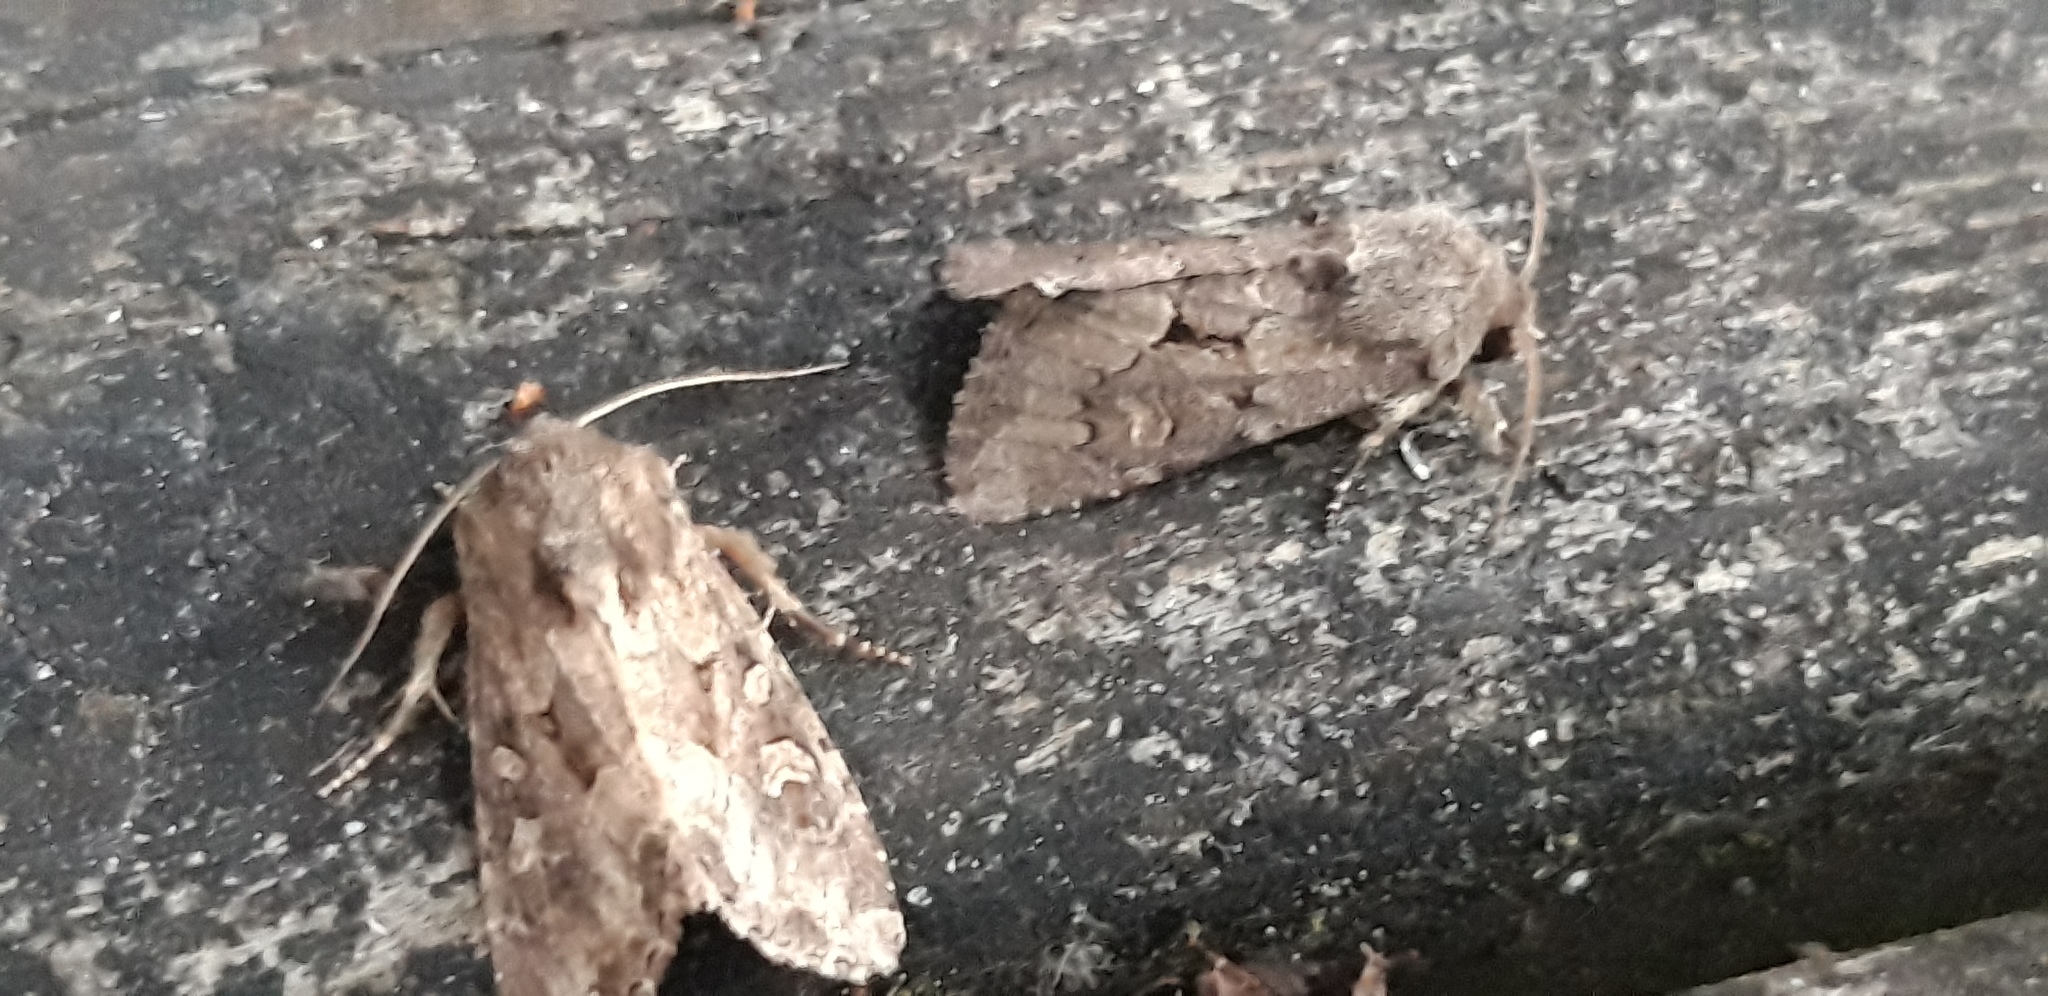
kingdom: Animalia
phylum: Arthropoda
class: Insecta
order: Lepidoptera
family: Noctuidae
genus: Luperina
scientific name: Luperina testacea
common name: Flounced rustic
